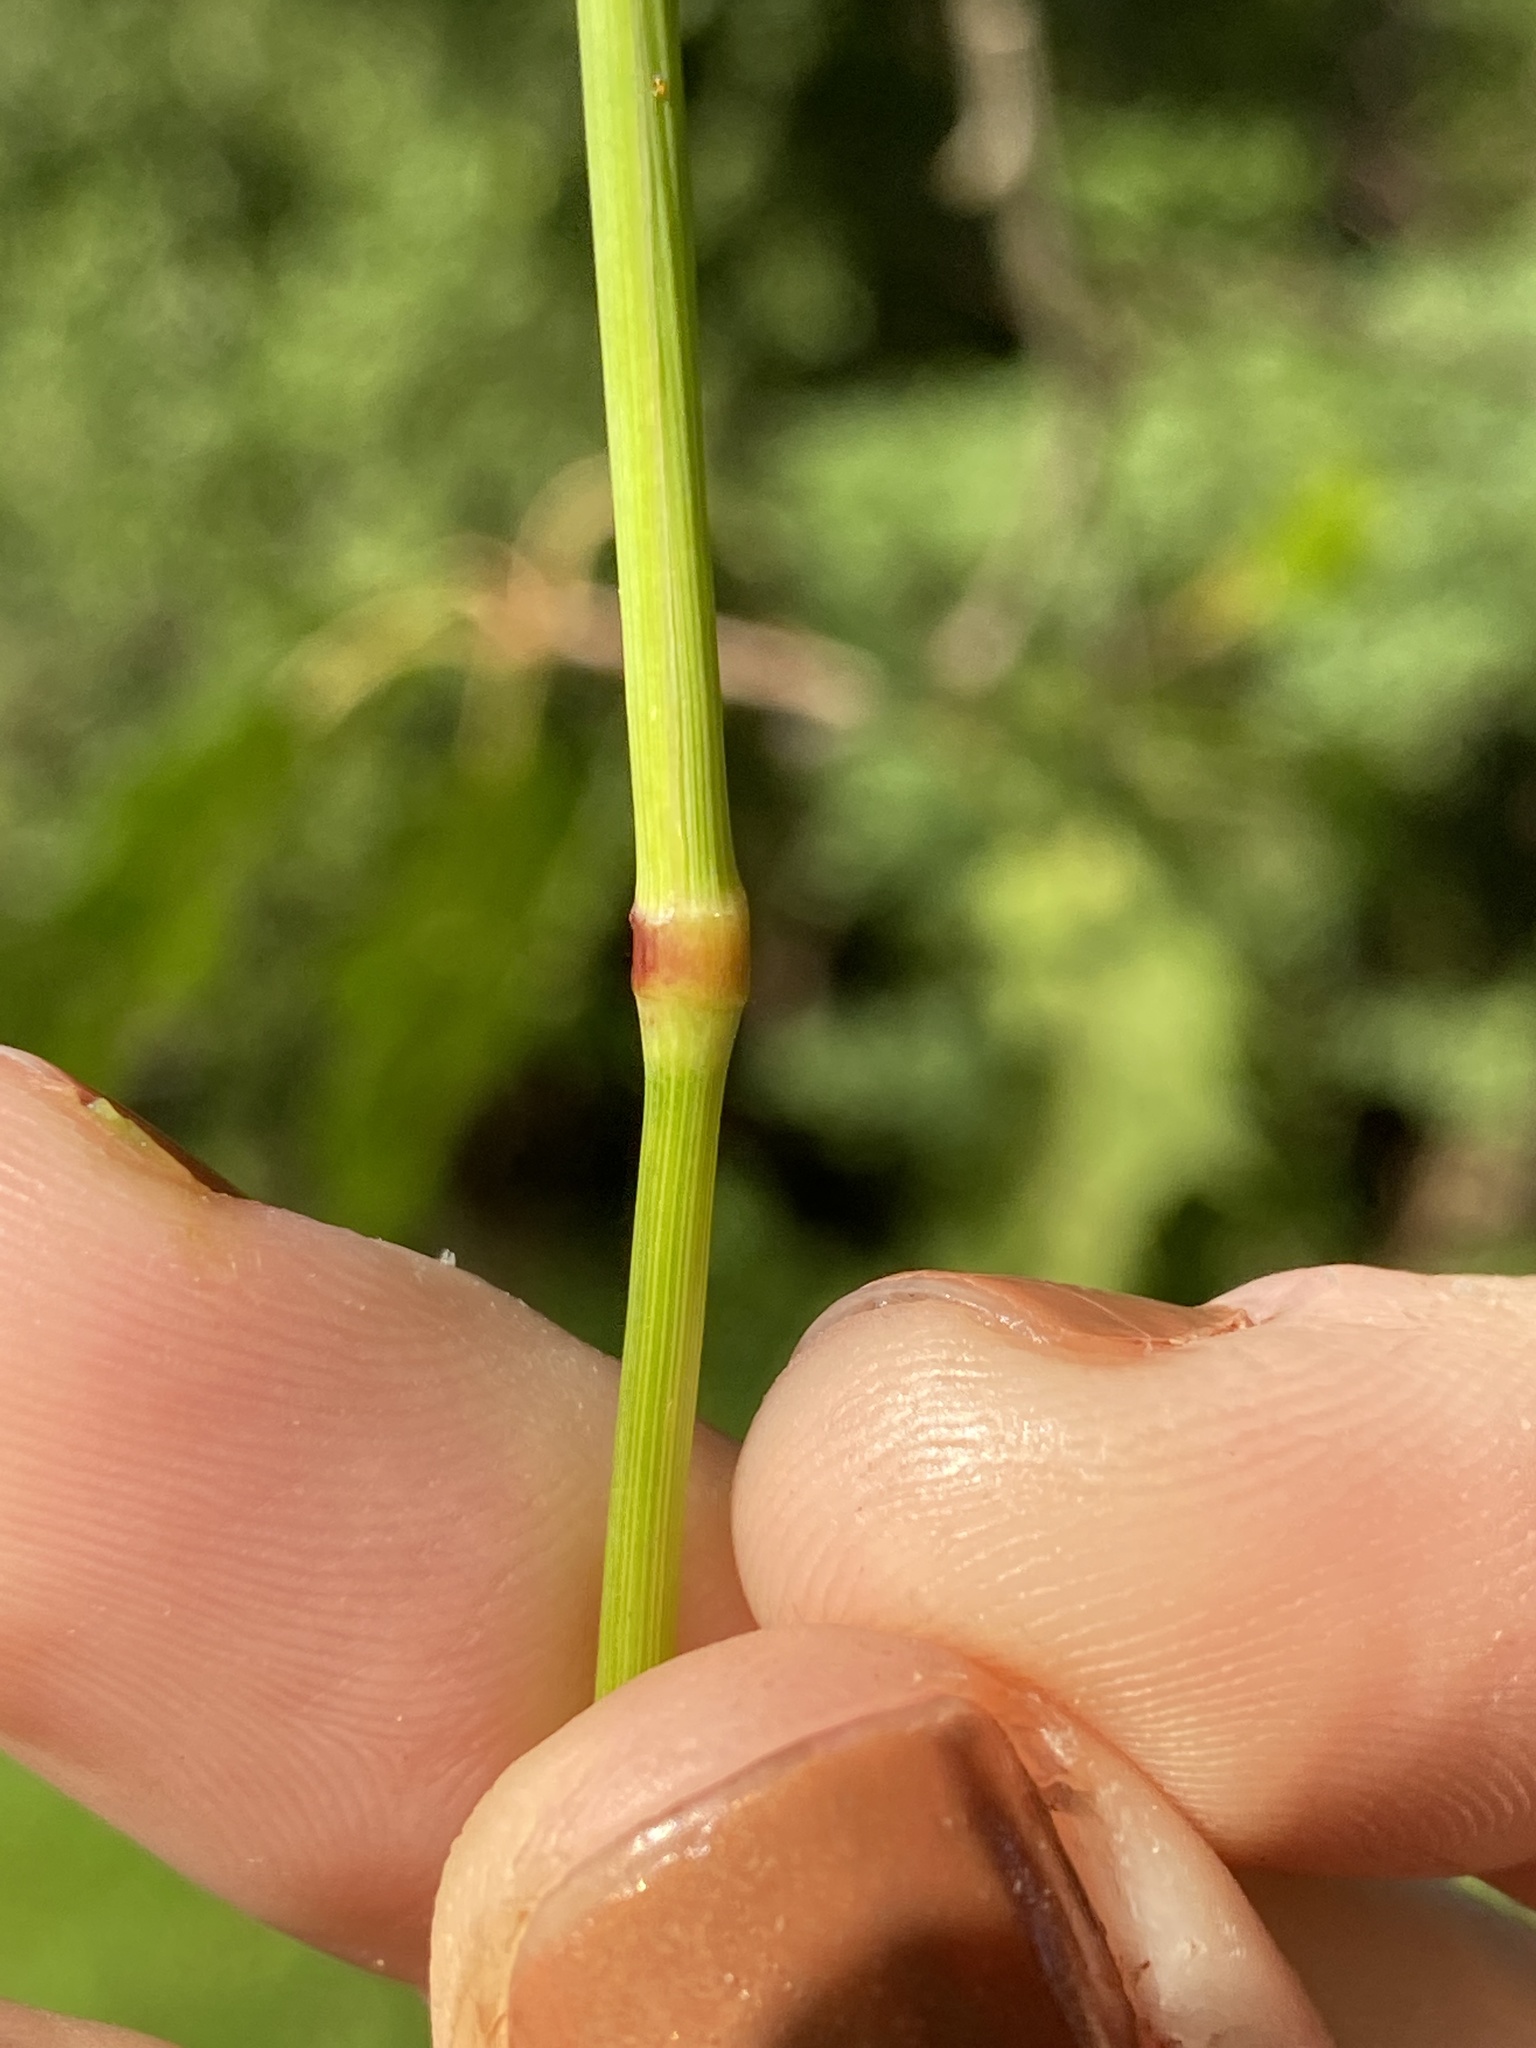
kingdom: Plantae
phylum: Tracheophyta
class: Liliopsida
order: Poales
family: Poaceae
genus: Phleum
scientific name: Phleum pratense
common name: Timothy grass
